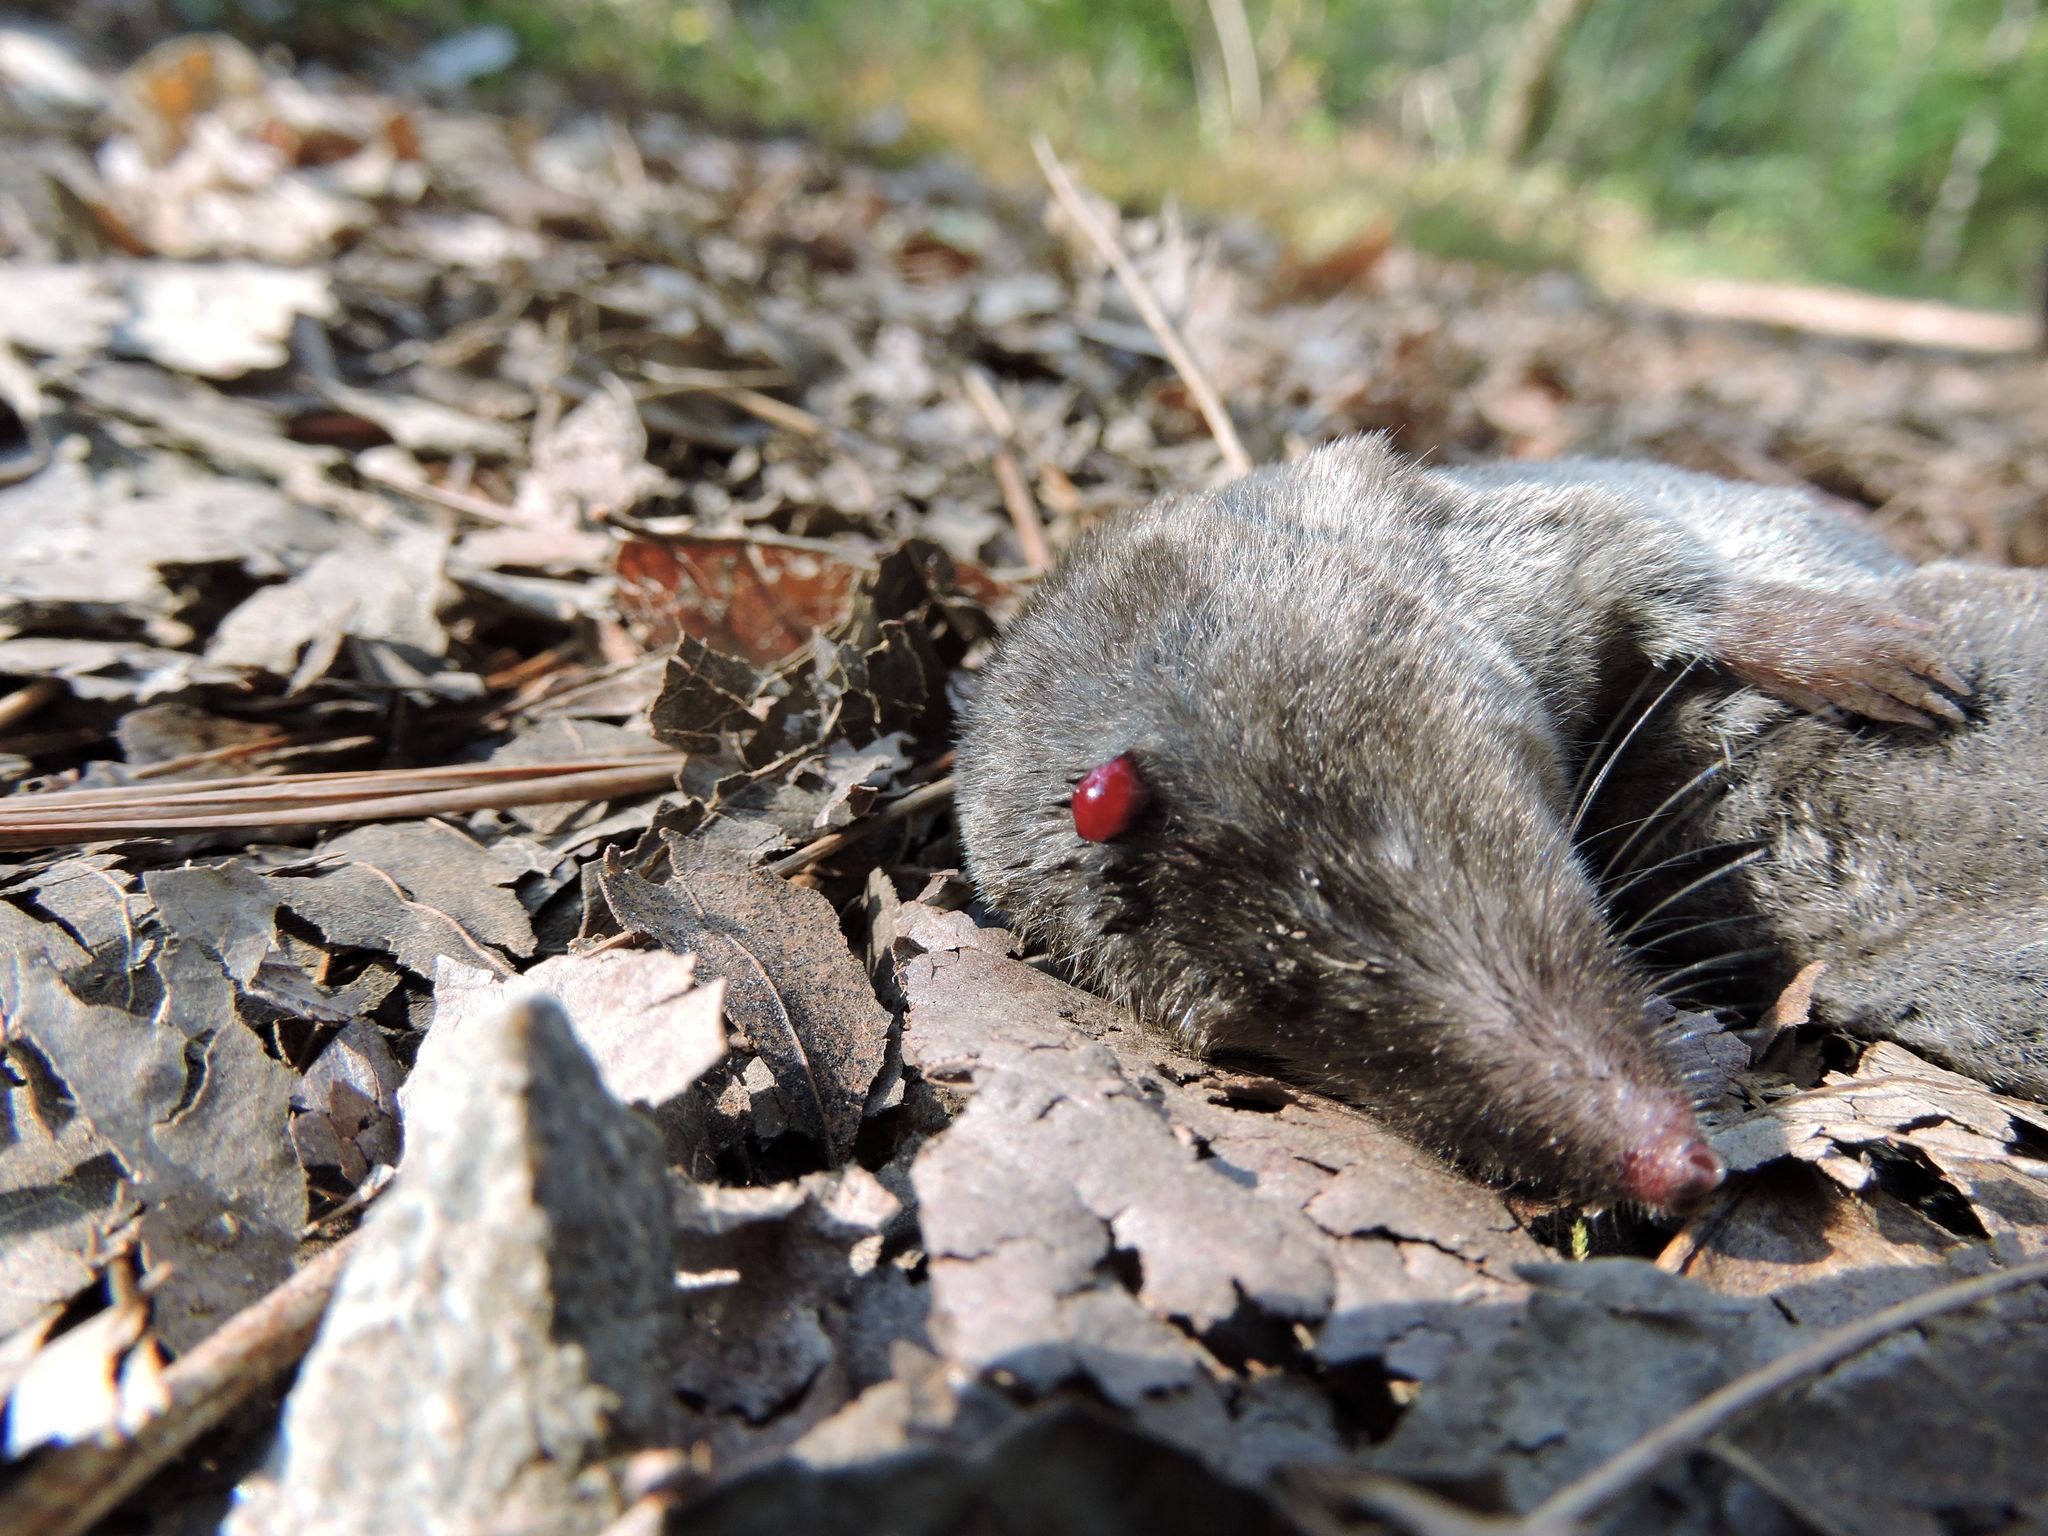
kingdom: Animalia
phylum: Chordata
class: Mammalia
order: Soricomorpha
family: Soricidae
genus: Blarina
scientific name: Blarina brevicauda
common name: Northern short-tailed shrew
